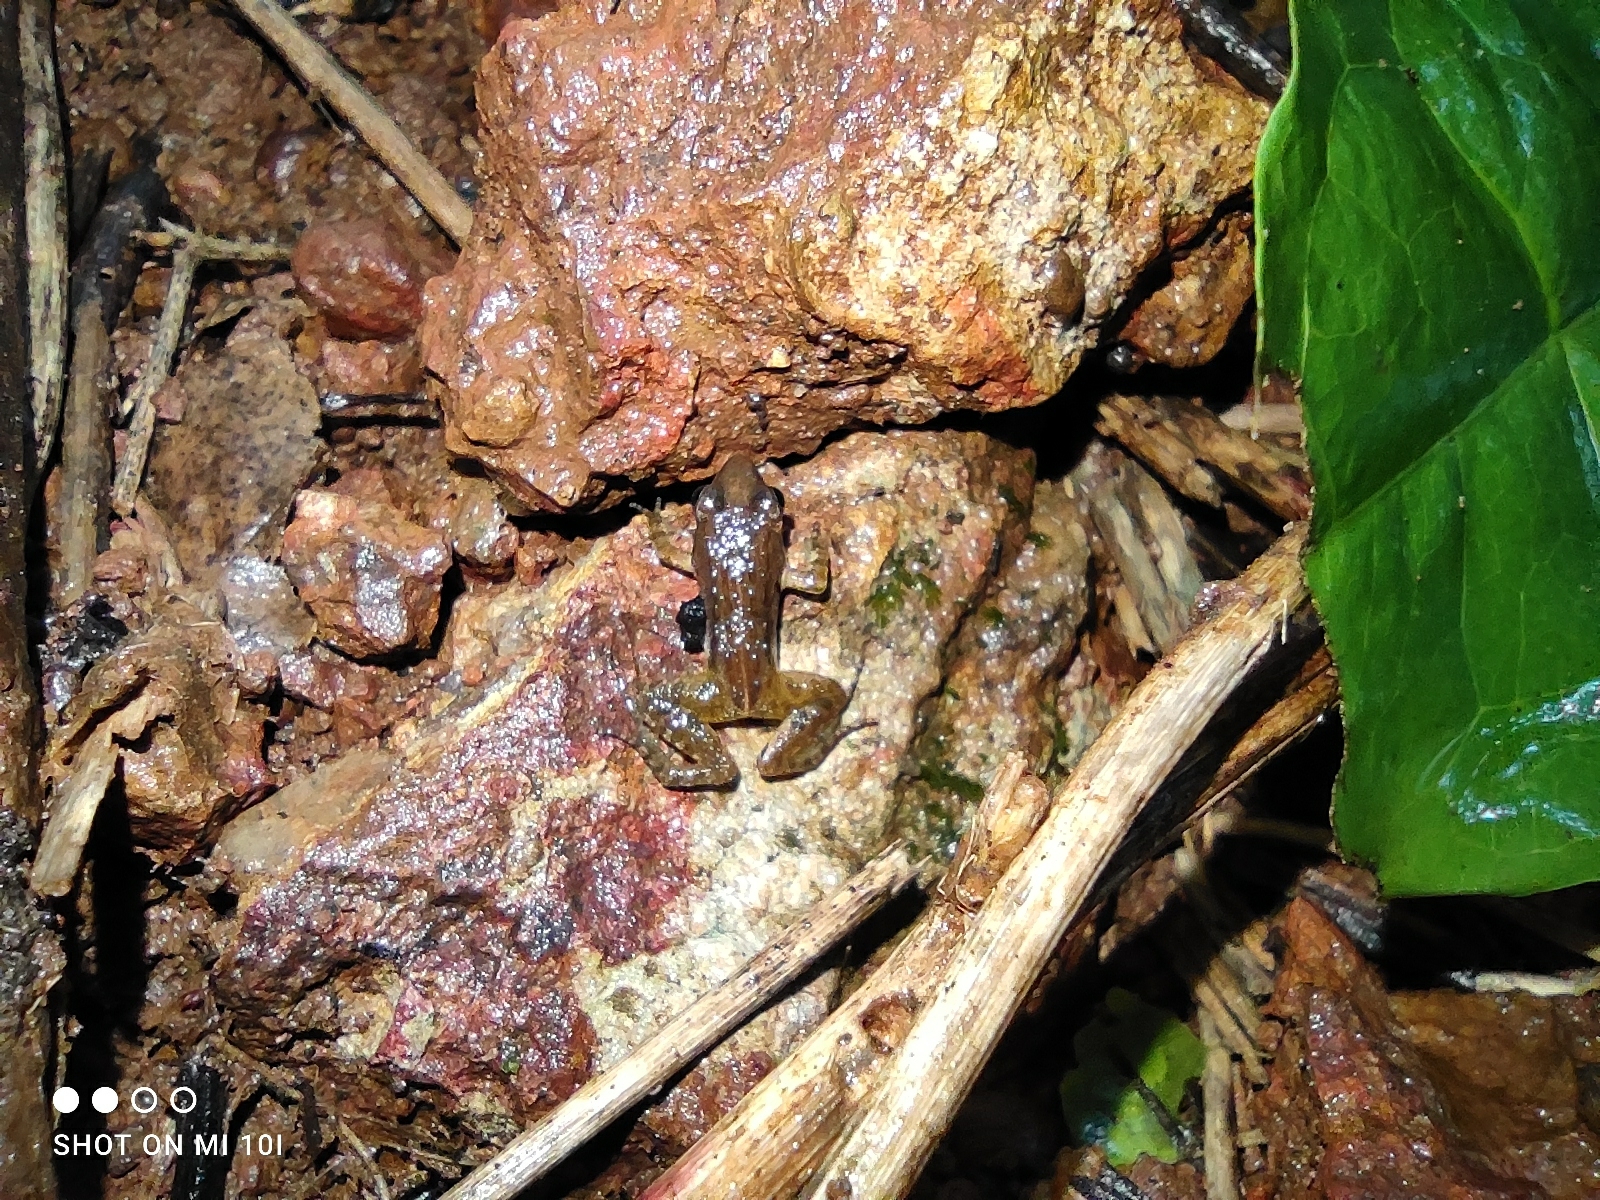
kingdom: Animalia
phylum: Chordata
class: Amphibia
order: Anura
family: Dicroglossidae
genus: Minervarya
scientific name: Minervarya sahyadris
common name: Minevarya frog
